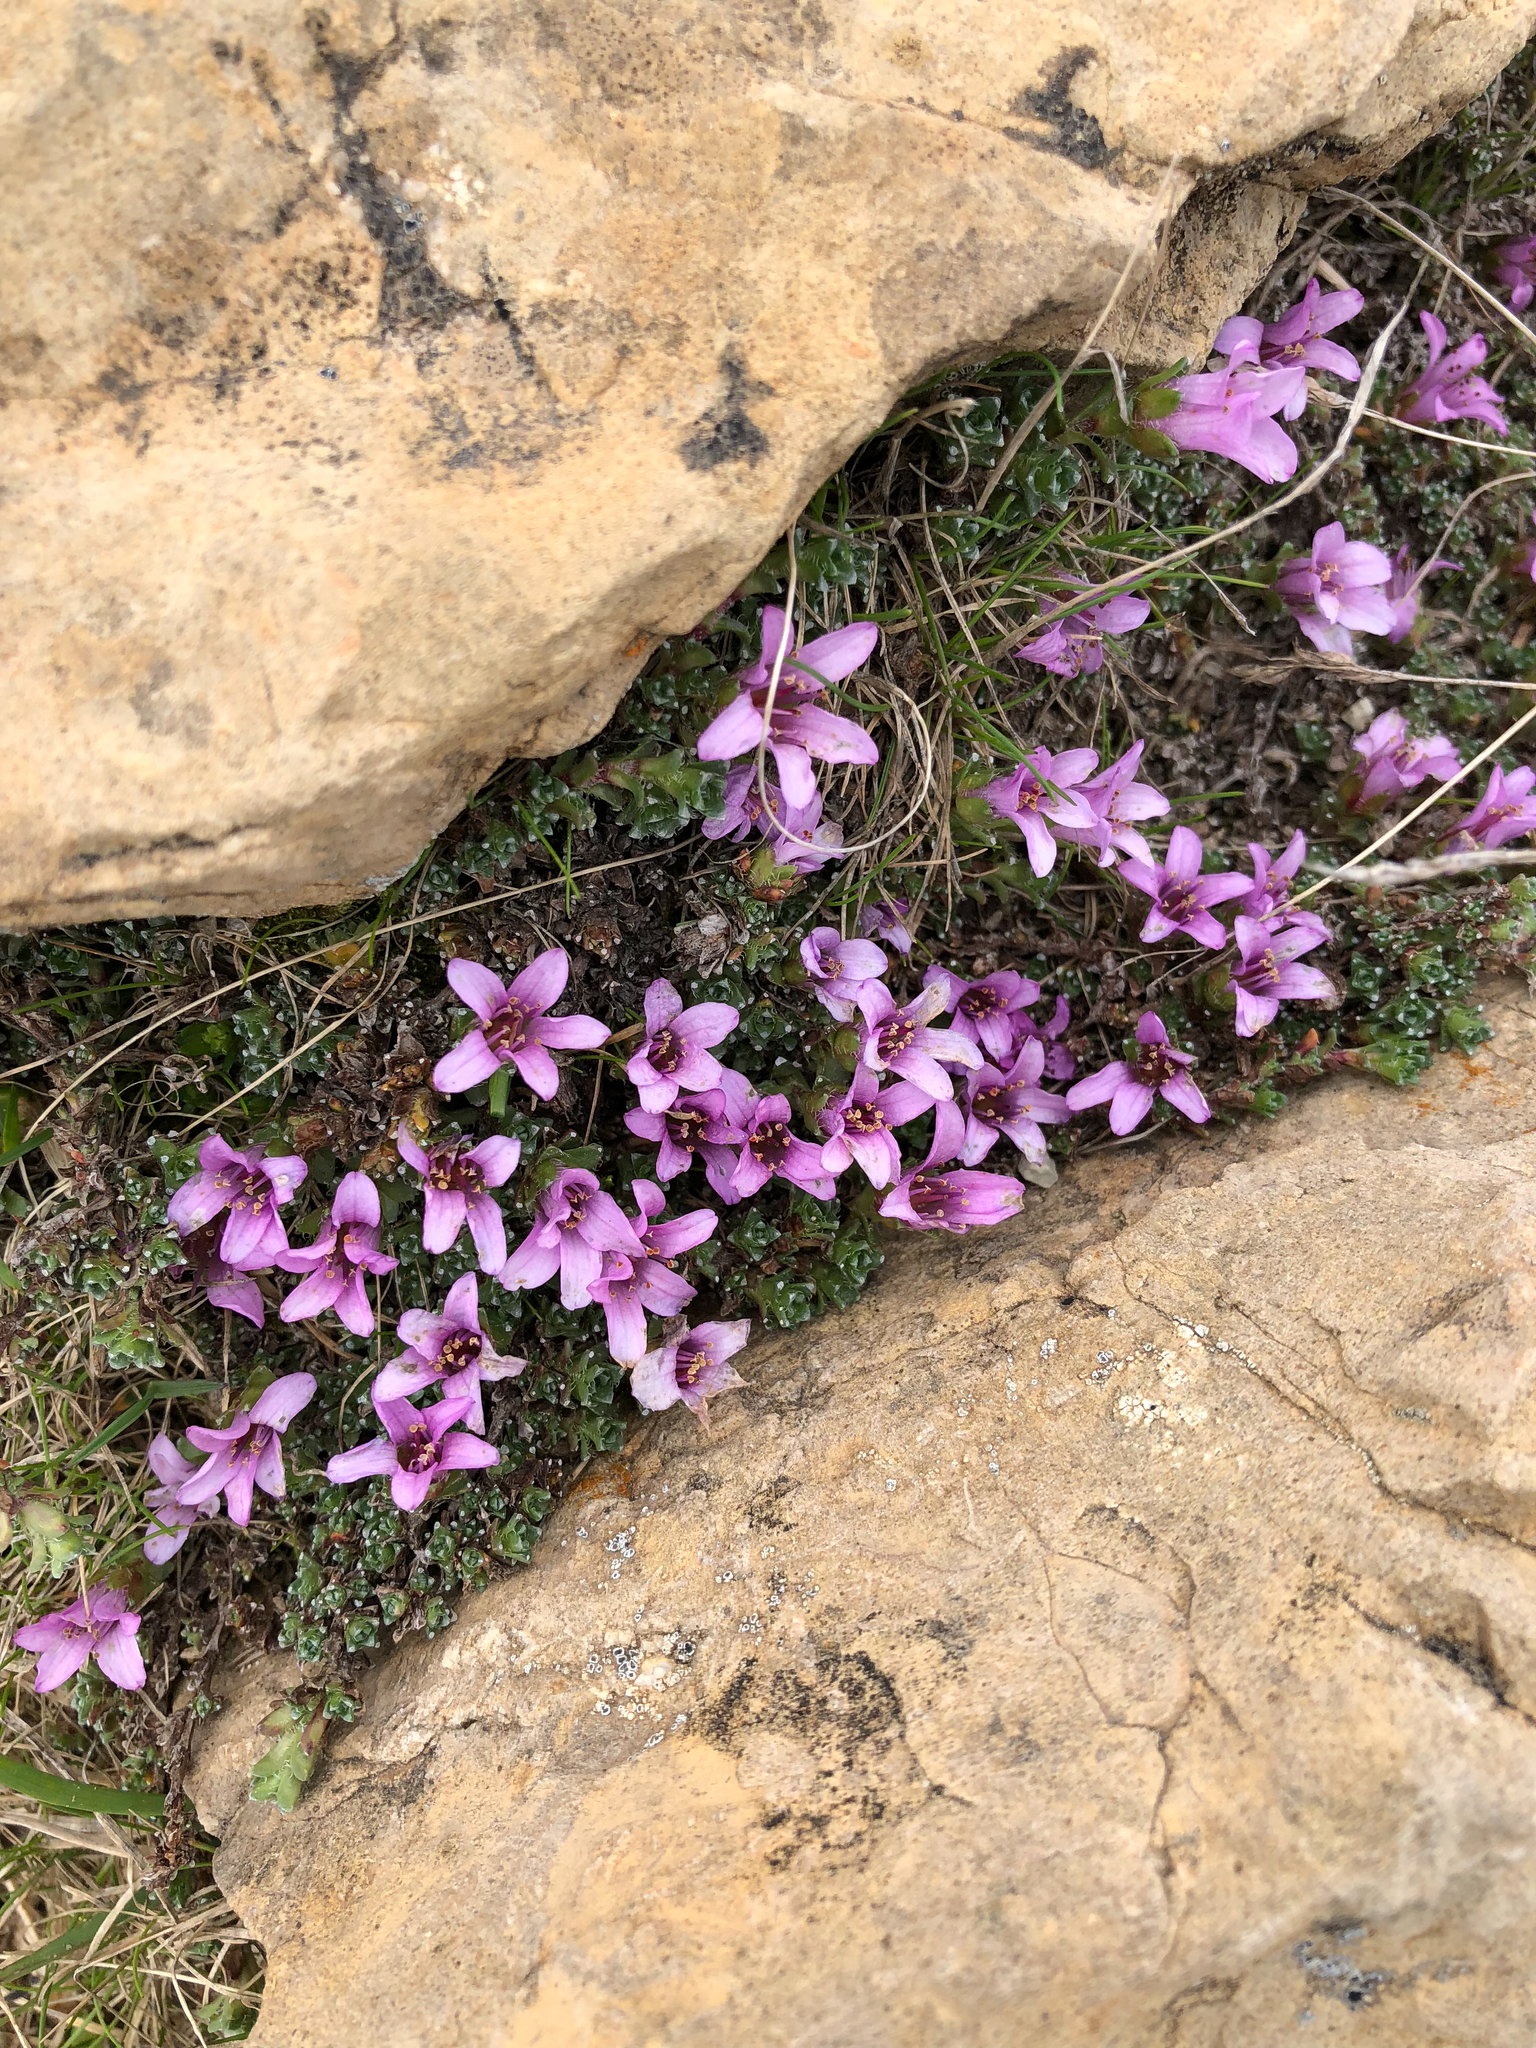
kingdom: Plantae
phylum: Tracheophyta
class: Magnoliopsida
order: Saxifragales
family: Saxifragaceae
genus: Saxifraga
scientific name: Saxifraga oppositifolia
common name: Purple saxifrage
